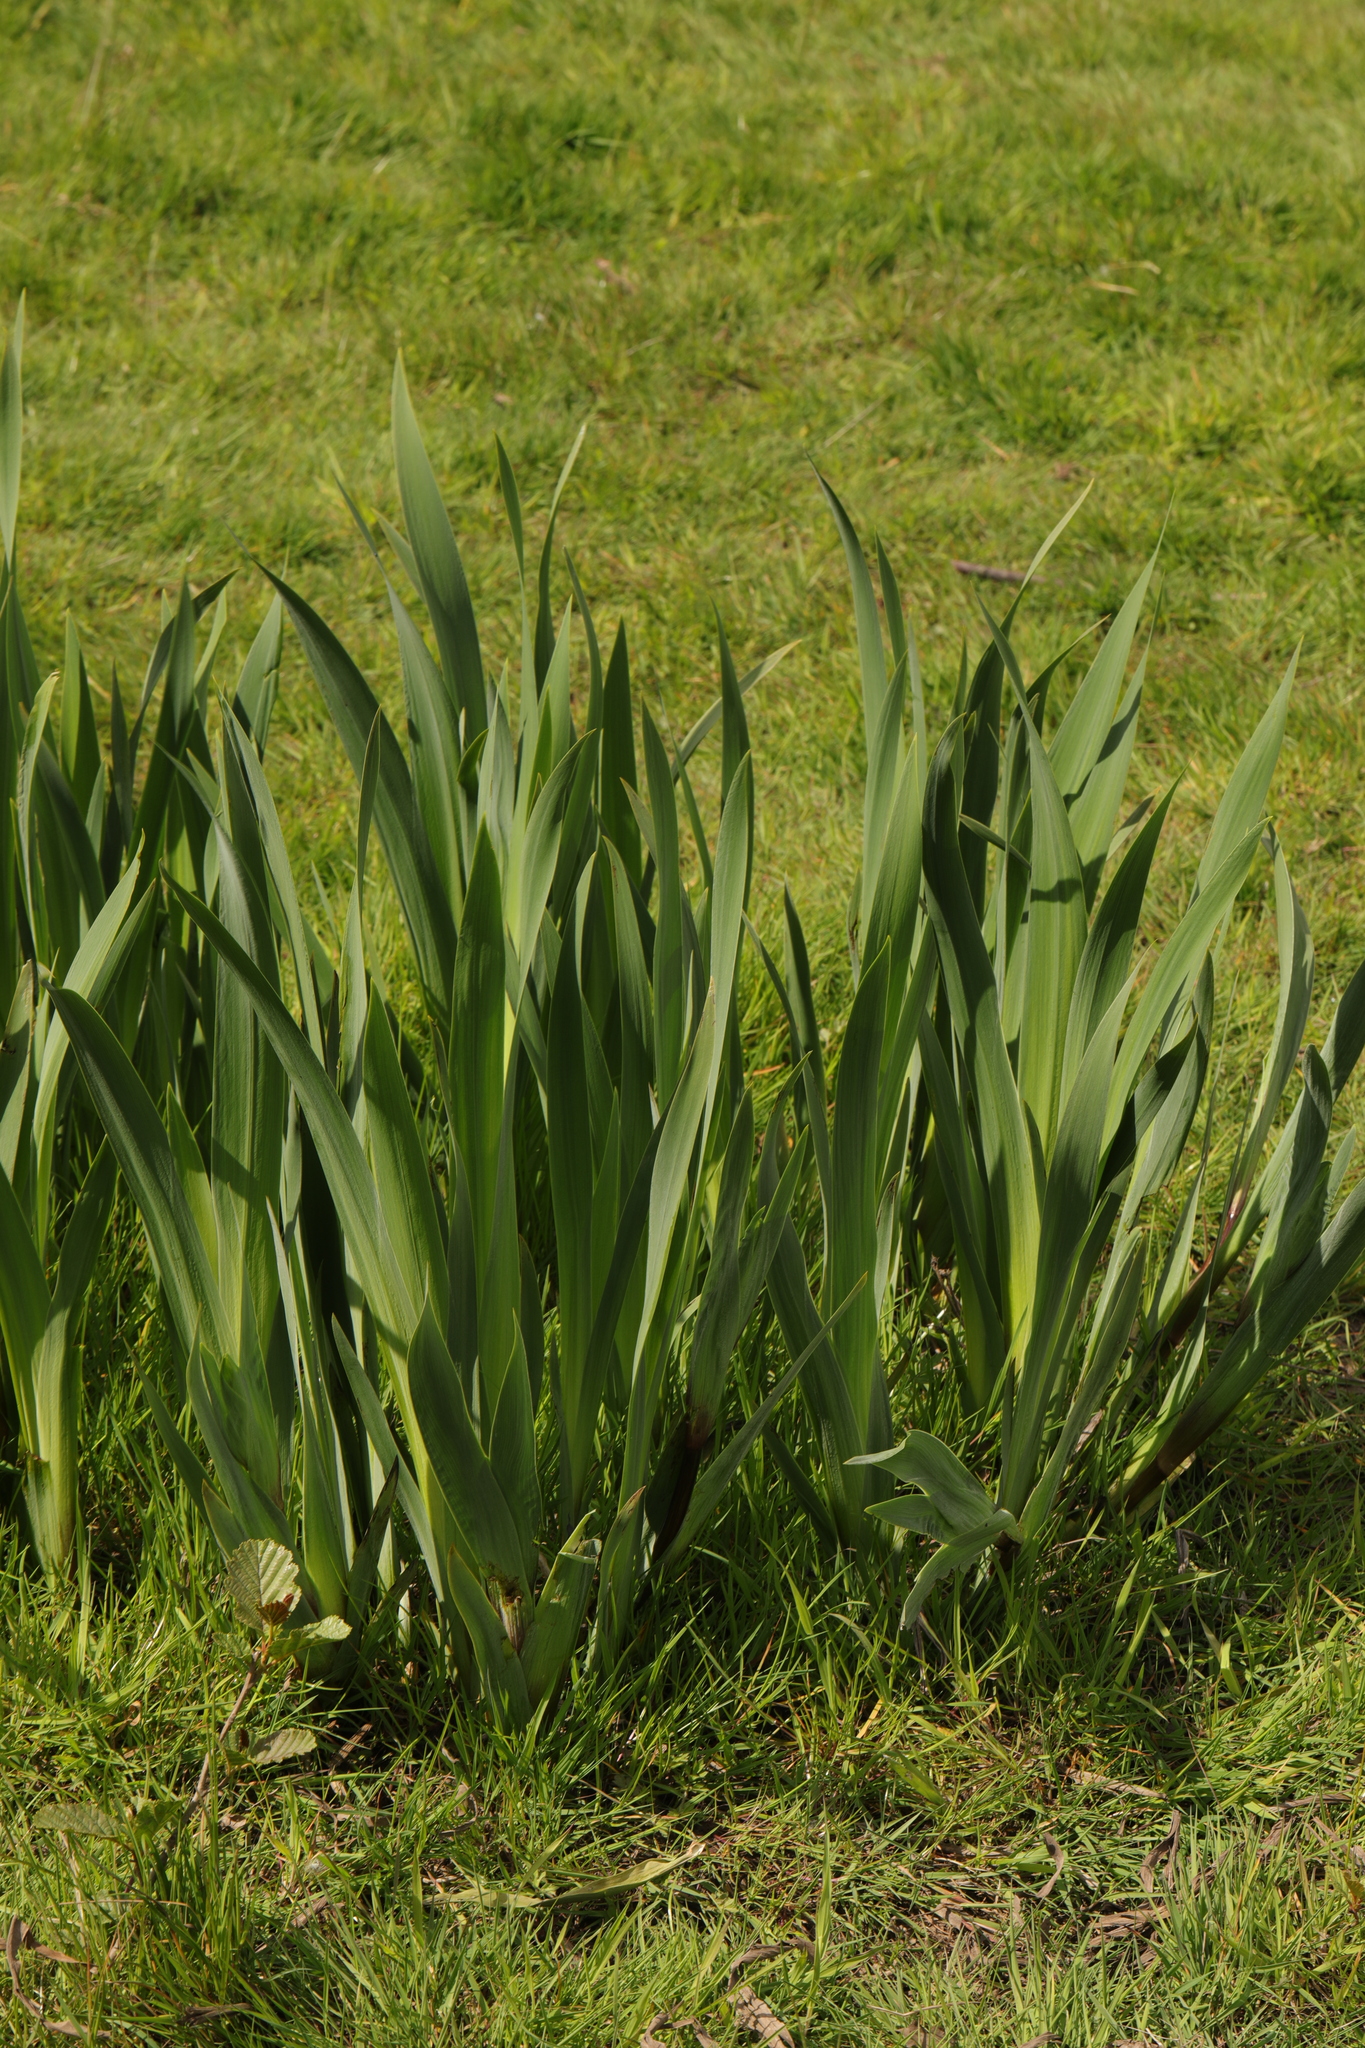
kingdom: Plantae
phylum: Tracheophyta
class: Liliopsida
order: Asparagales
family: Iridaceae
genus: Iris
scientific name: Iris pseudacorus
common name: Yellow flag
